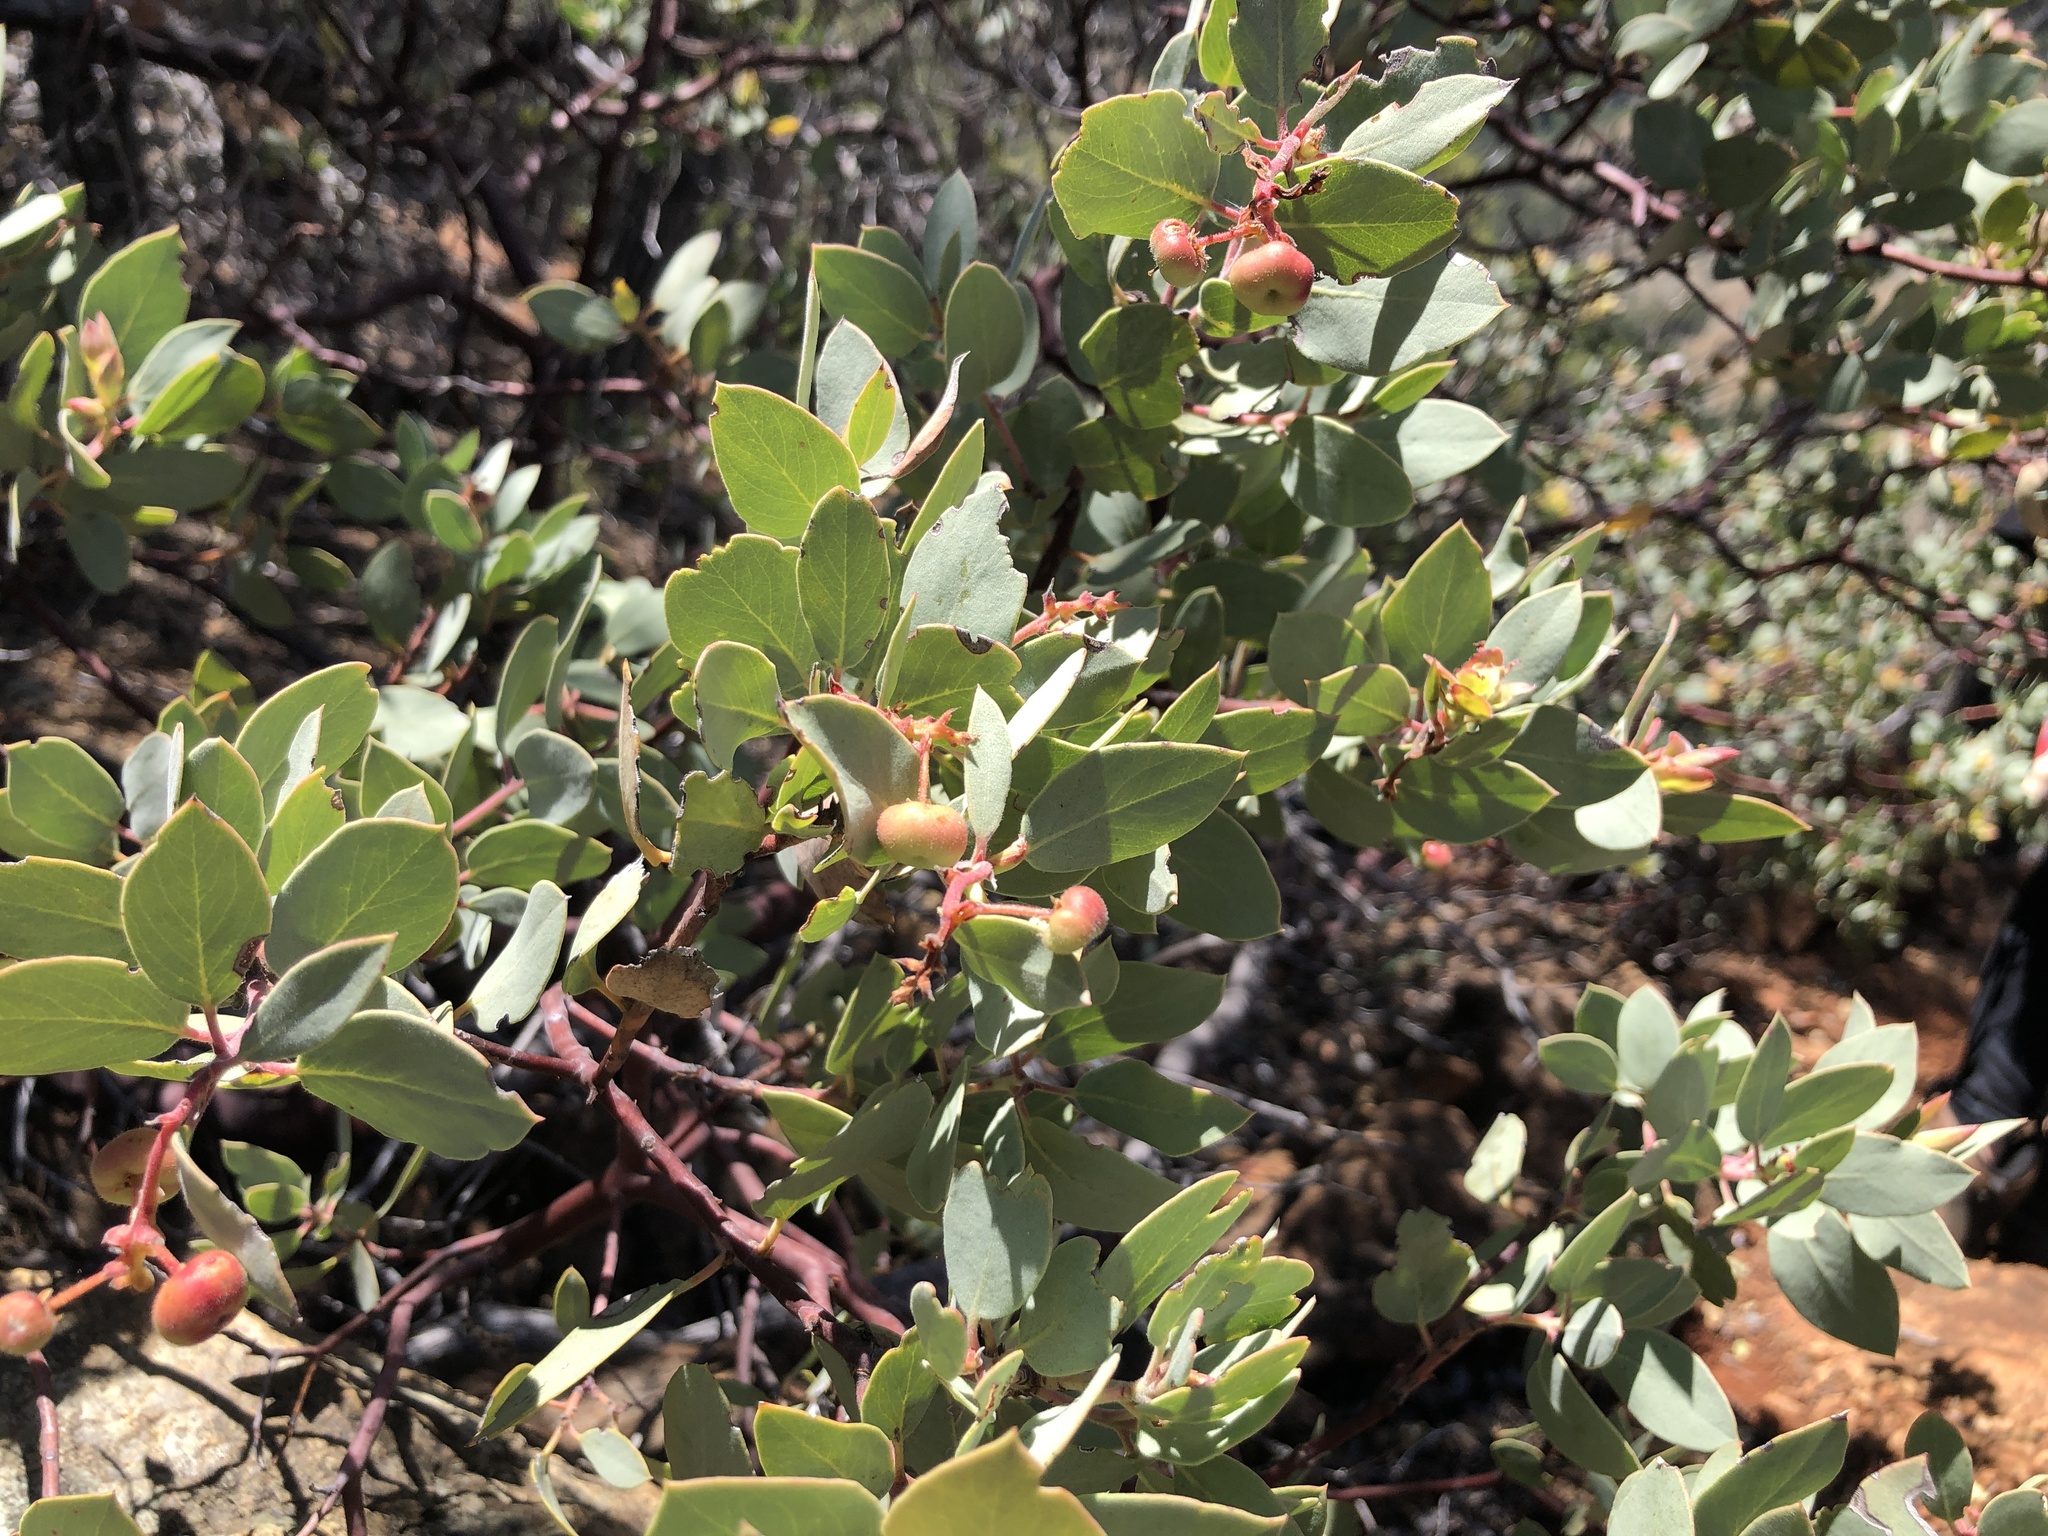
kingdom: Plantae
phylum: Tracheophyta
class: Magnoliopsida
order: Ericales
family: Ericaceae
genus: Arctostaphylos
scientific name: Arctostaphylos viscida
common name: White-leaf manzanita
